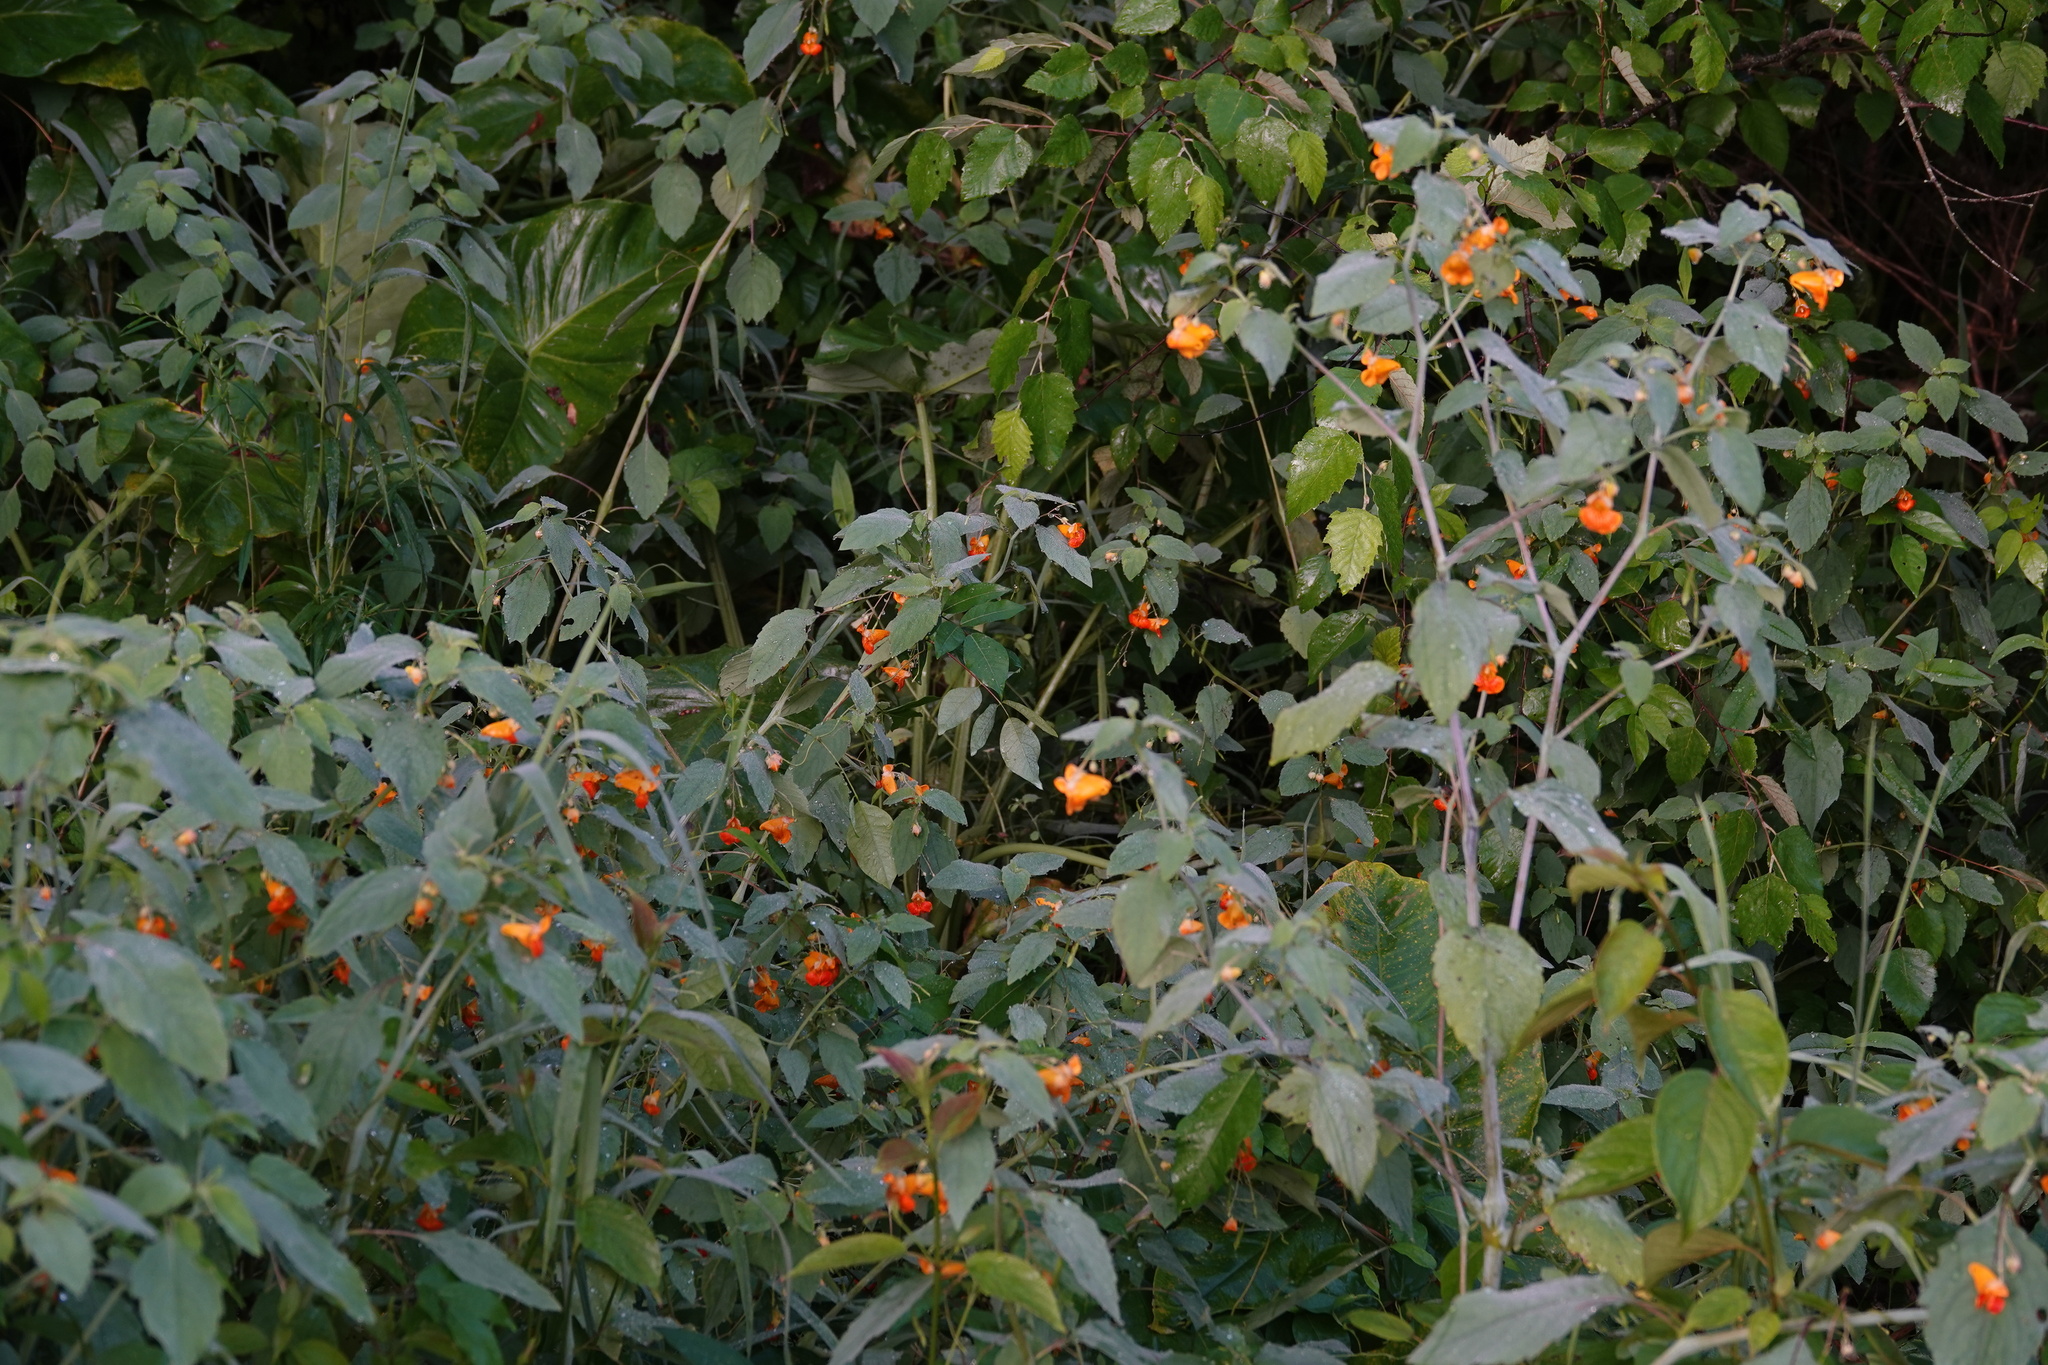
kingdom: Plantae
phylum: Tracheophyta
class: Magnoliopsida
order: Ericales
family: Balsaminaceae
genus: Impatiens
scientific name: Impatiens capensis
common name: Orange balsam
